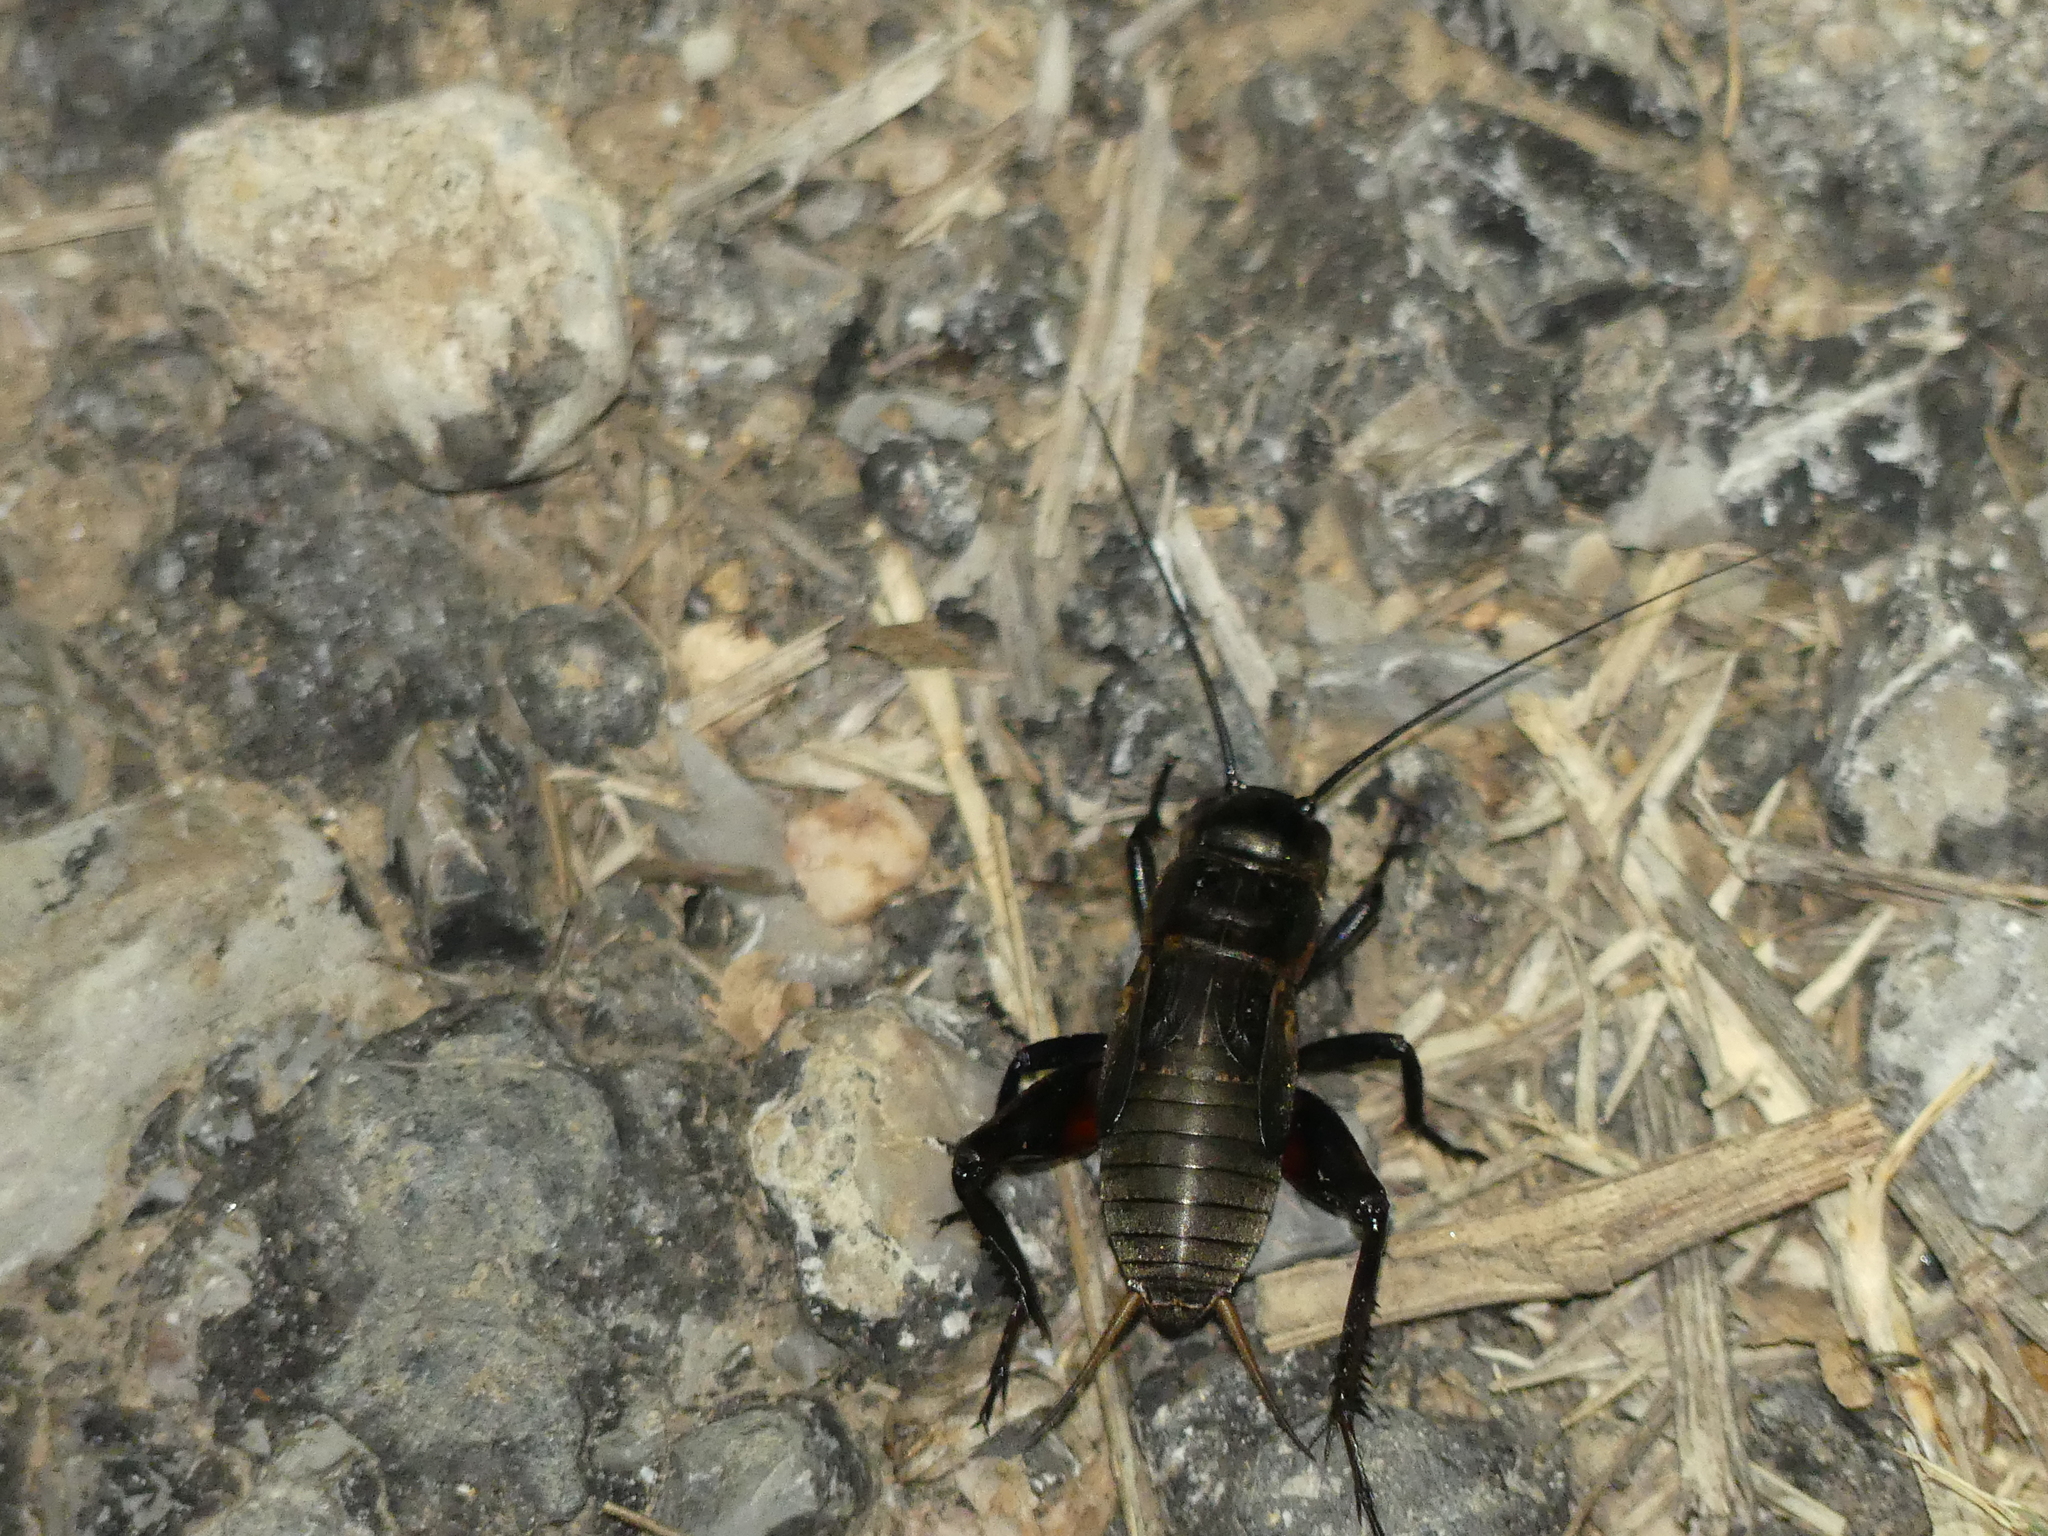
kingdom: Animalia
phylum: Arthropoda
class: Insecta
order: Orthoptera
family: Gryllidae
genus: Gryllus
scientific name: Gryllus campestris
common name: Field cricket
